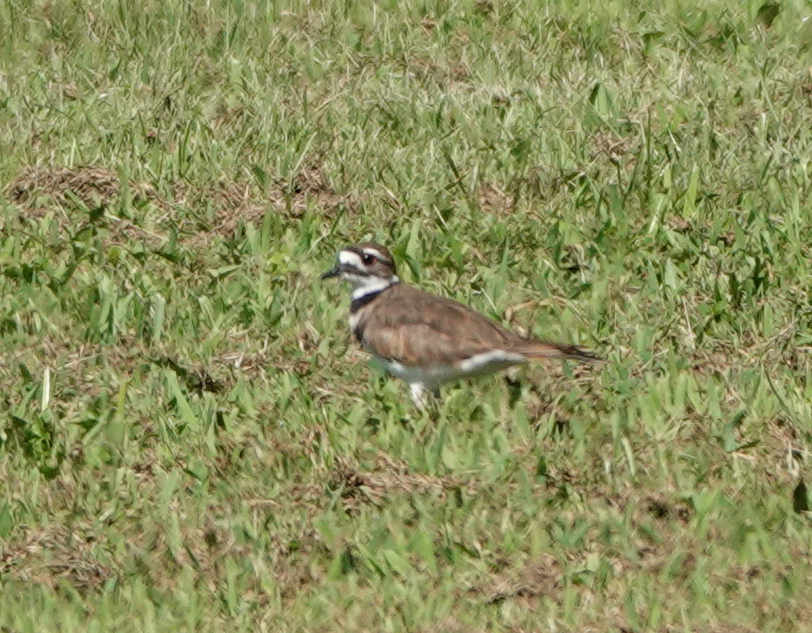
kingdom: Animalia
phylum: Chordata
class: Aves
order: Charadriiformes
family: Charadriidae
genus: Charadrius
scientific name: Charadrius vociferus
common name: Killdeer
